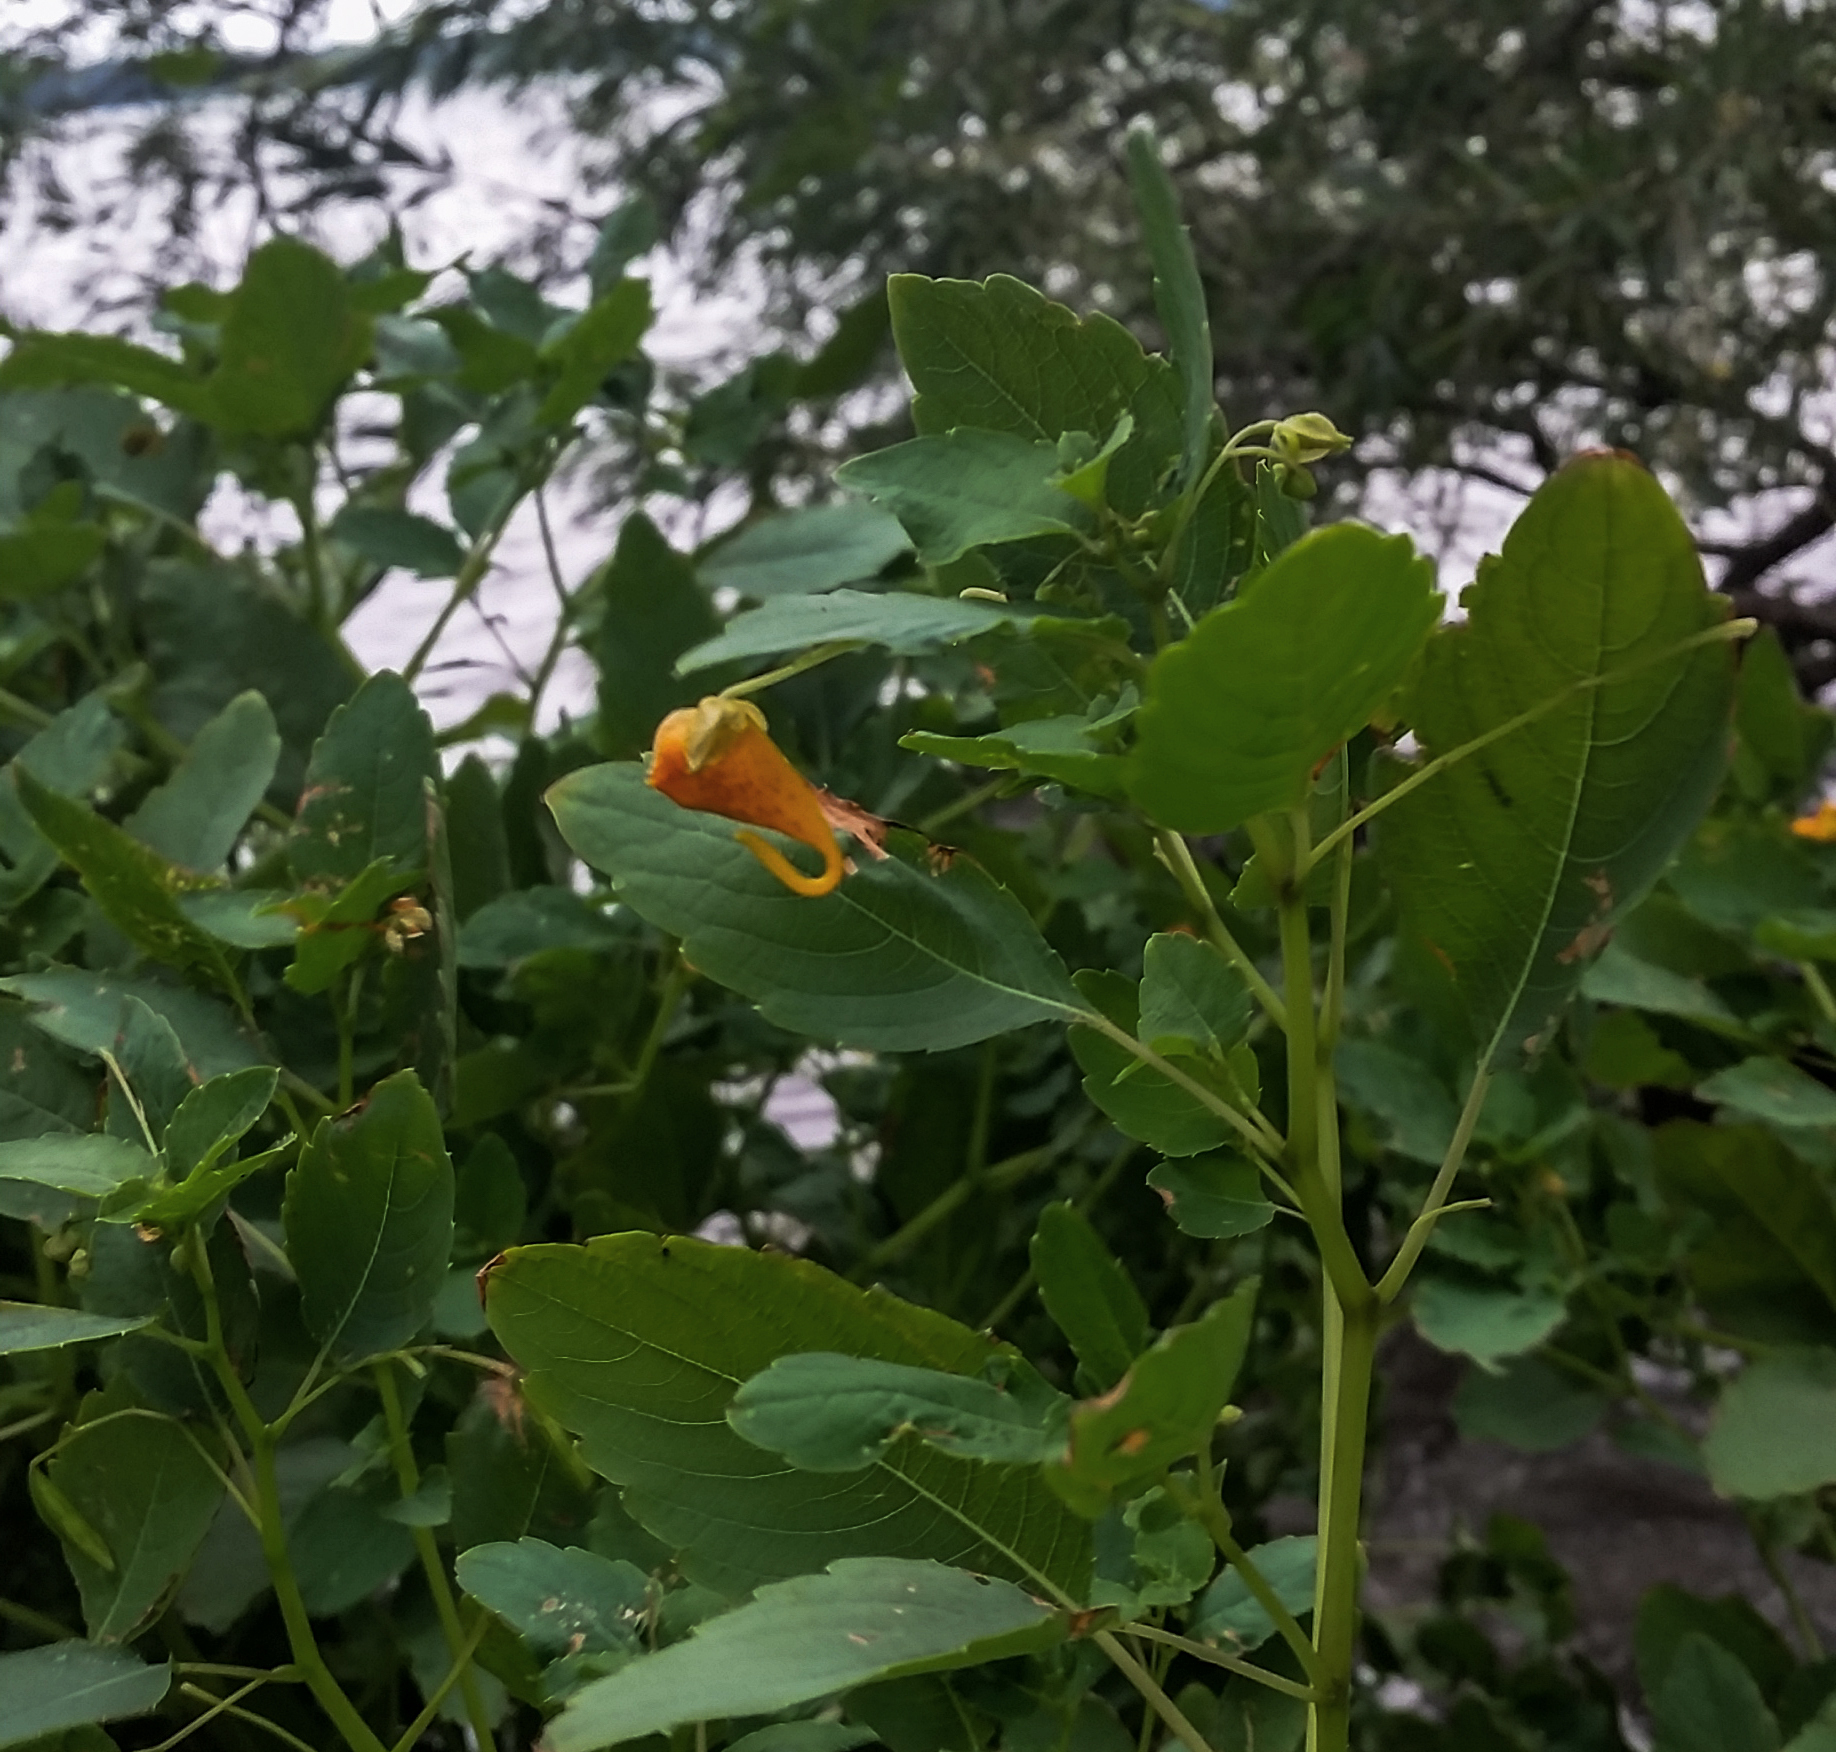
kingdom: Plantae
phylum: Tracheophyta
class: Magnoliopsida
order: Ericales
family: Balsaminaceae
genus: Impatiens
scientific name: Impatiens capensis
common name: Orange balsam
